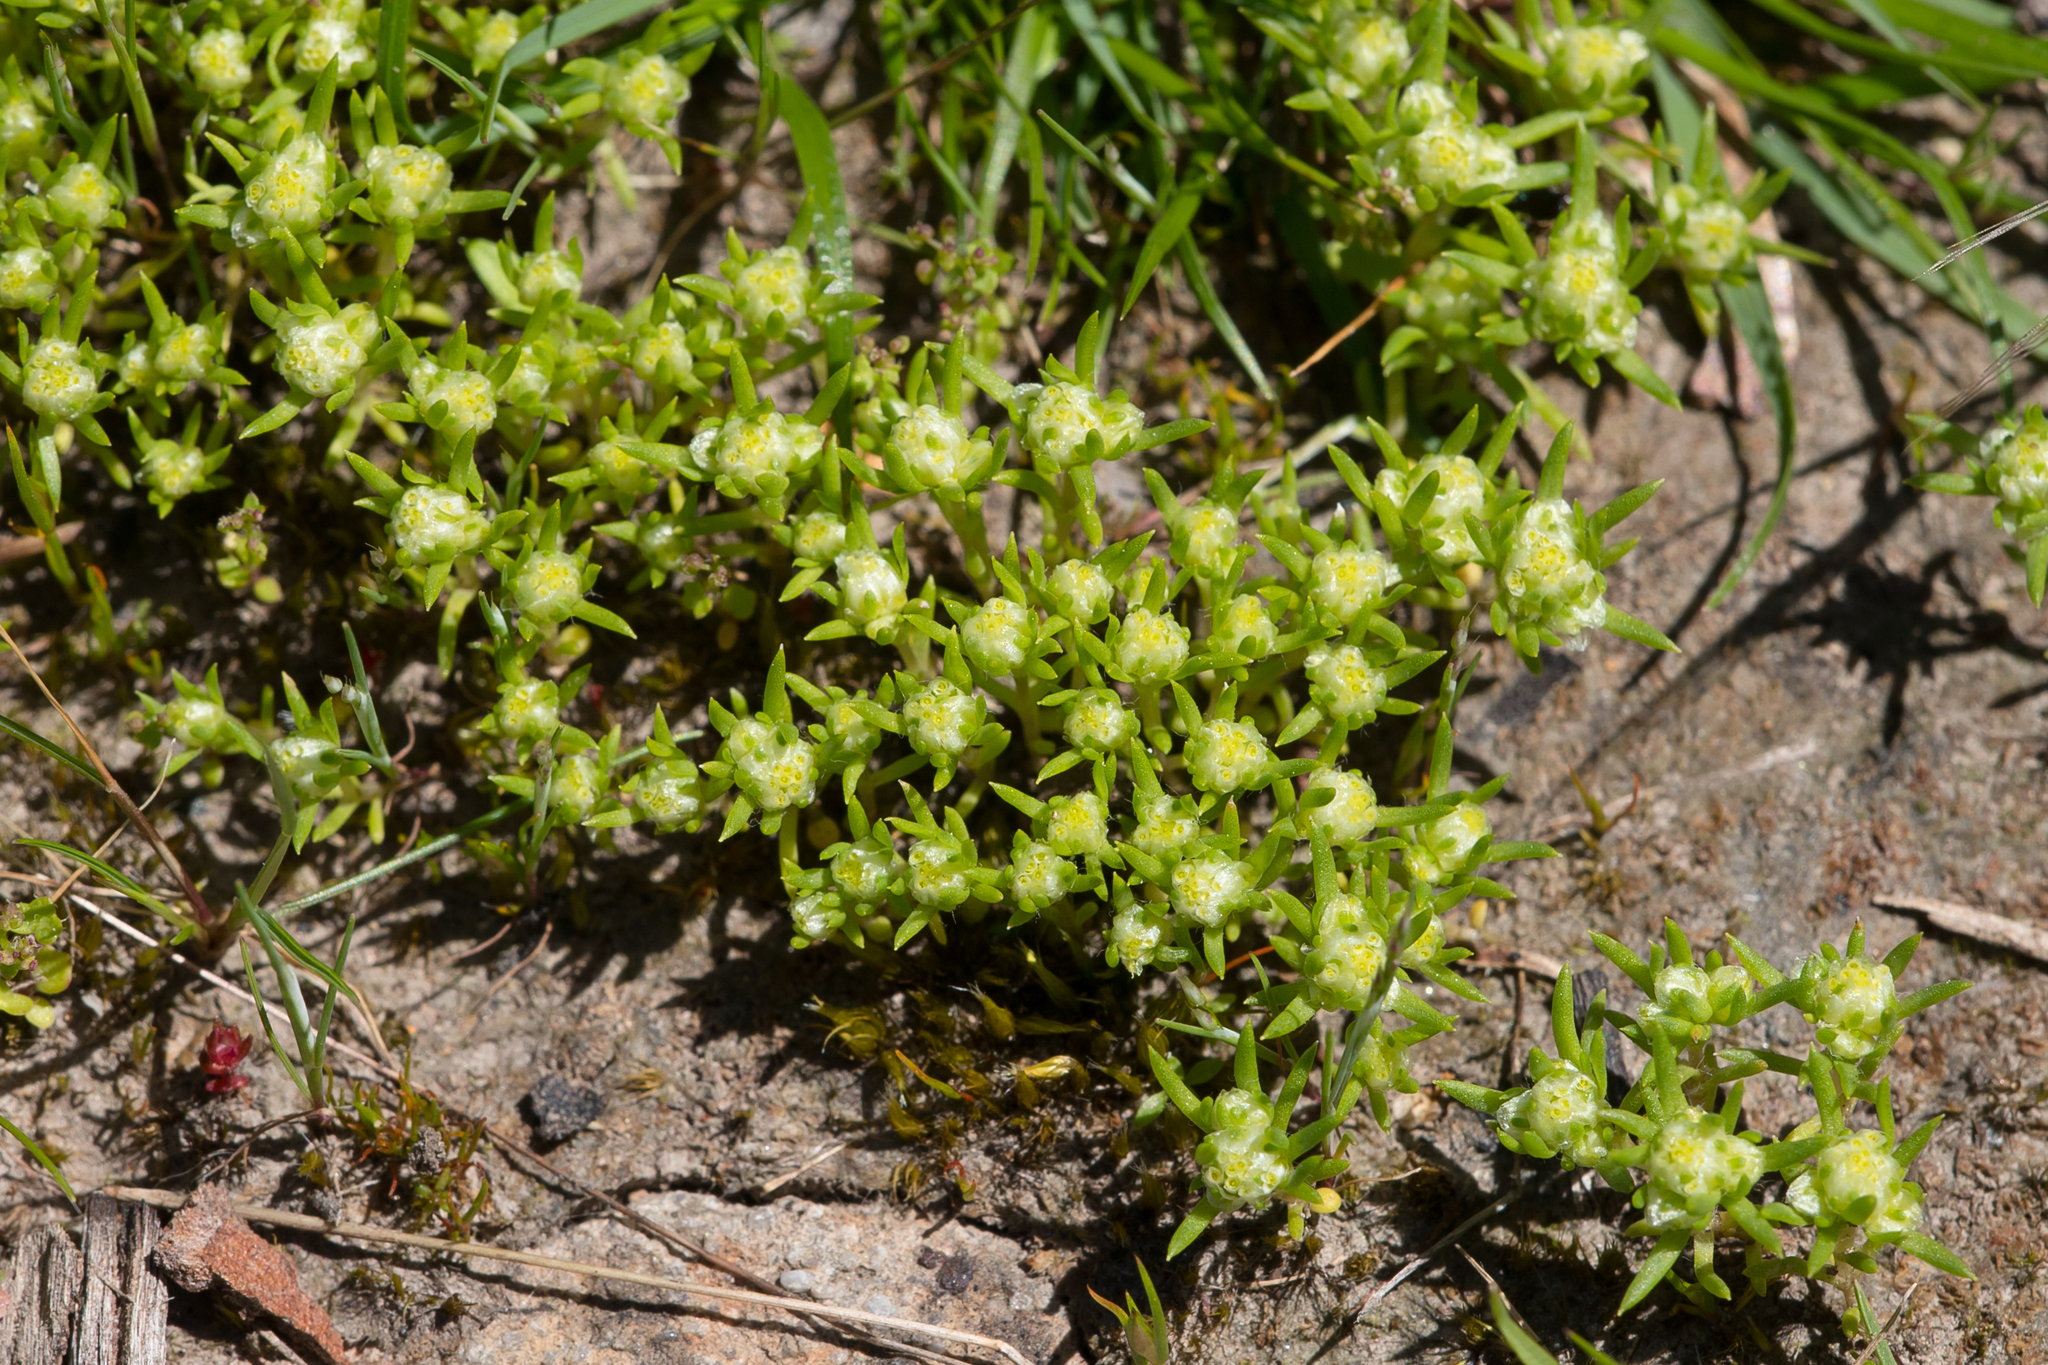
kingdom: Plantae
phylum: Tracheophyta
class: Magnoliopsida
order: Asterales
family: Asteraceae
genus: Siloxerus
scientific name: Siloxerus multiflorus
